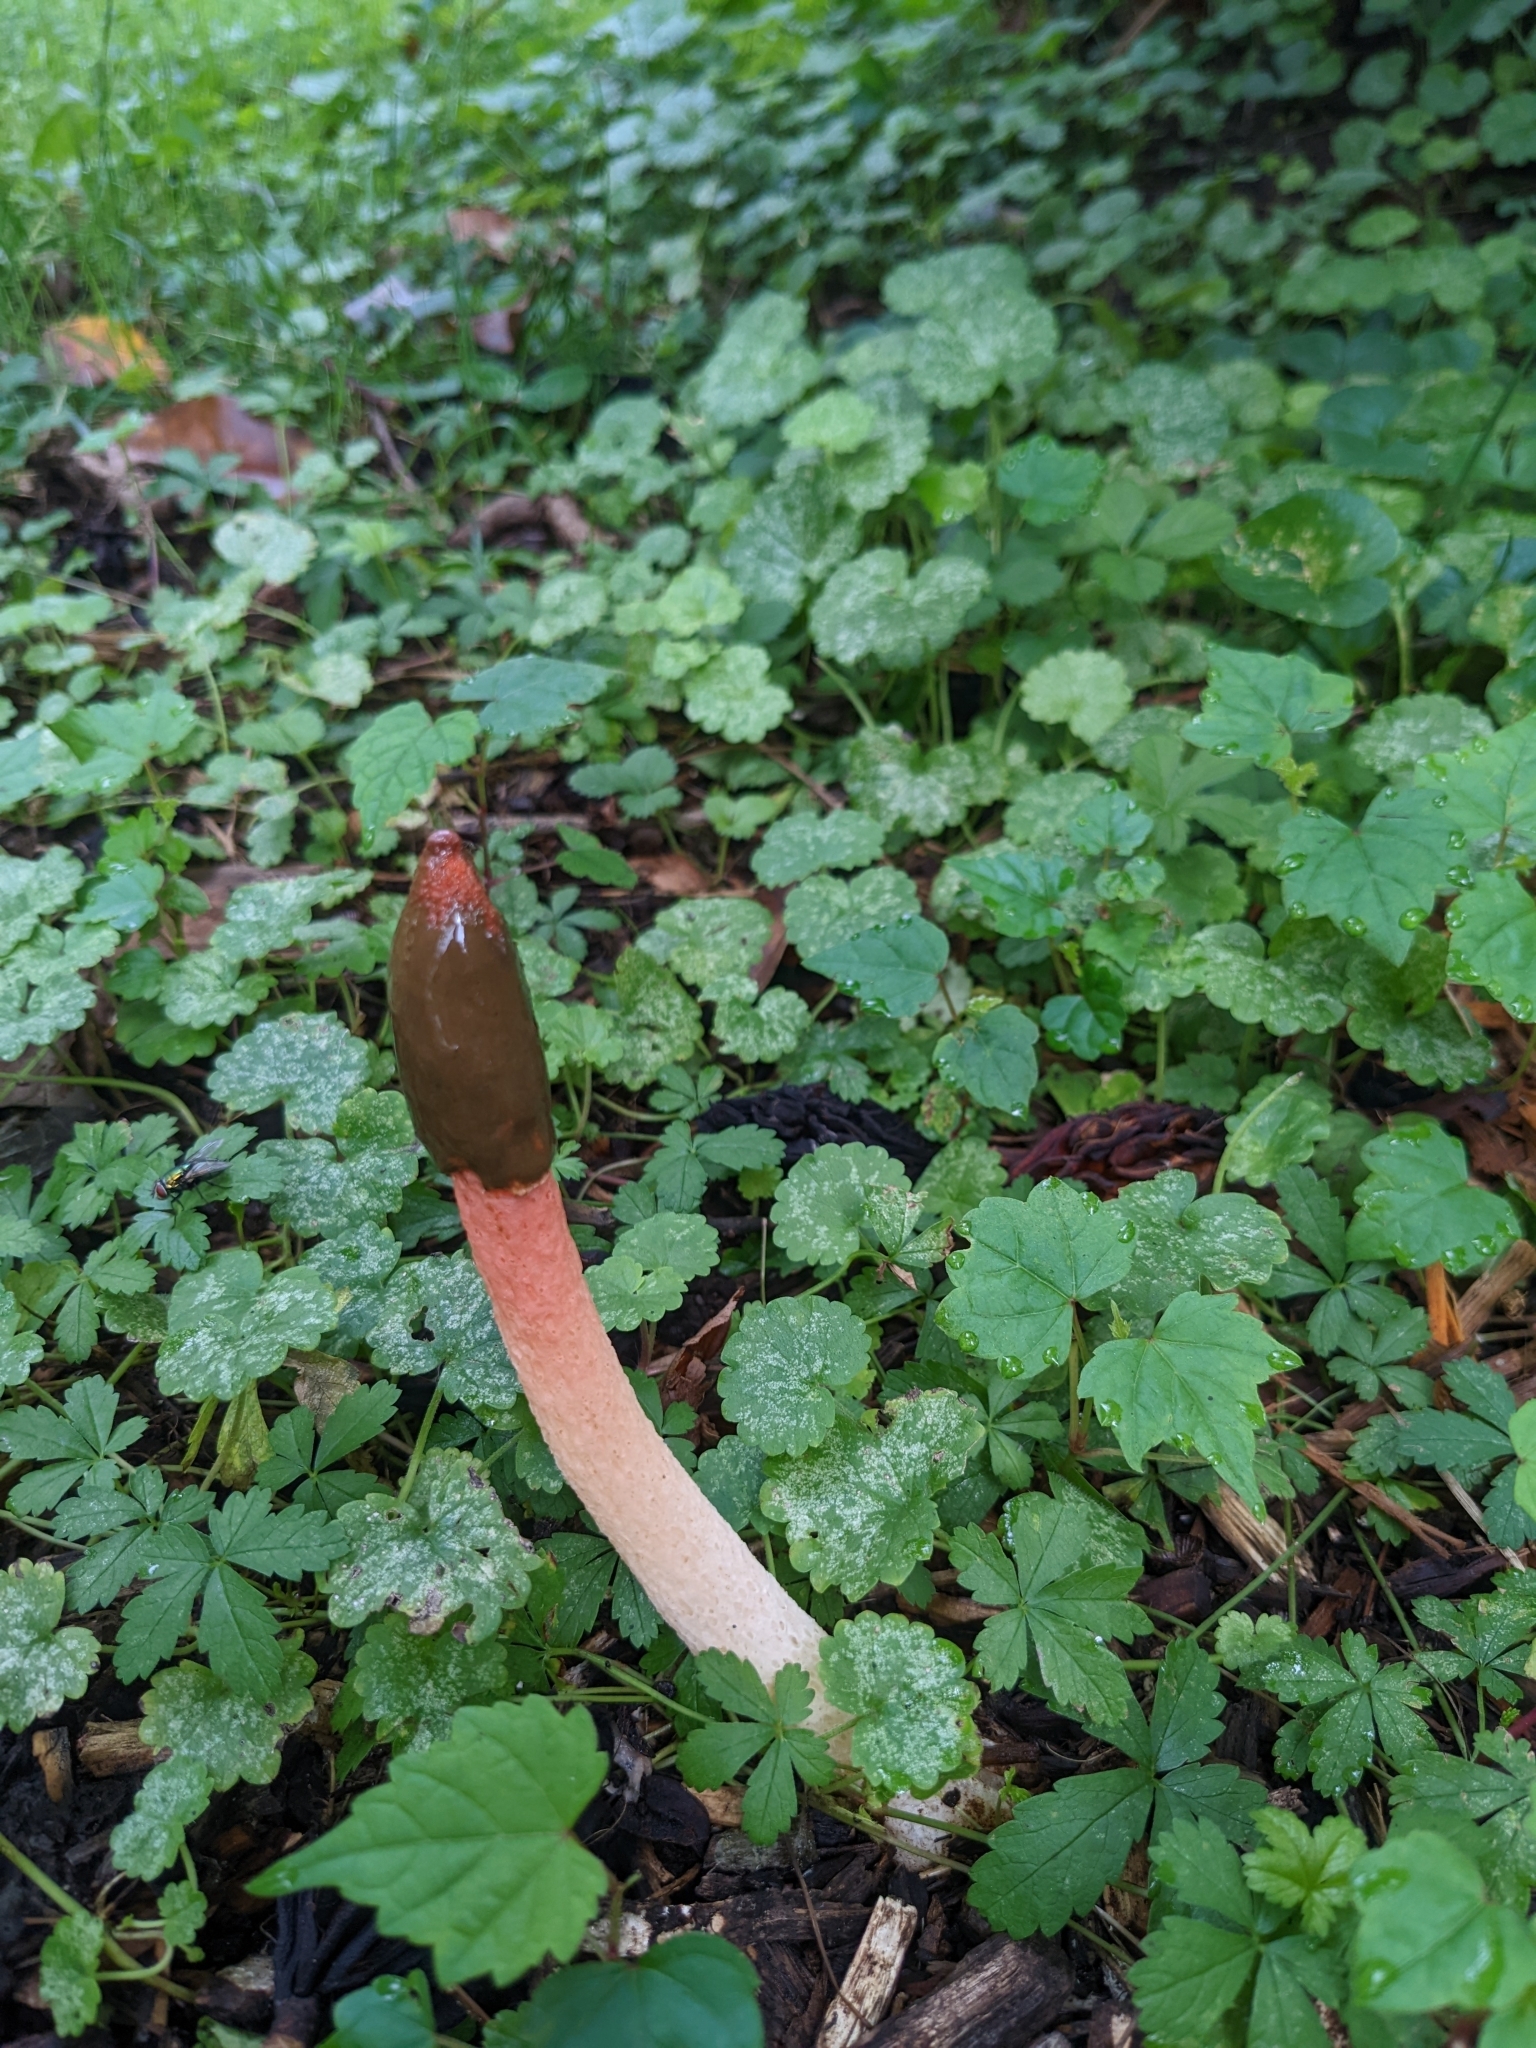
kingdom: Fungi
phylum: Basidiomycota
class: Agaricomycetes
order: Phallales
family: Phallaceae
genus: Phallus
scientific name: Phallus rugulosus
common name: Wrinkly stinkhorn
